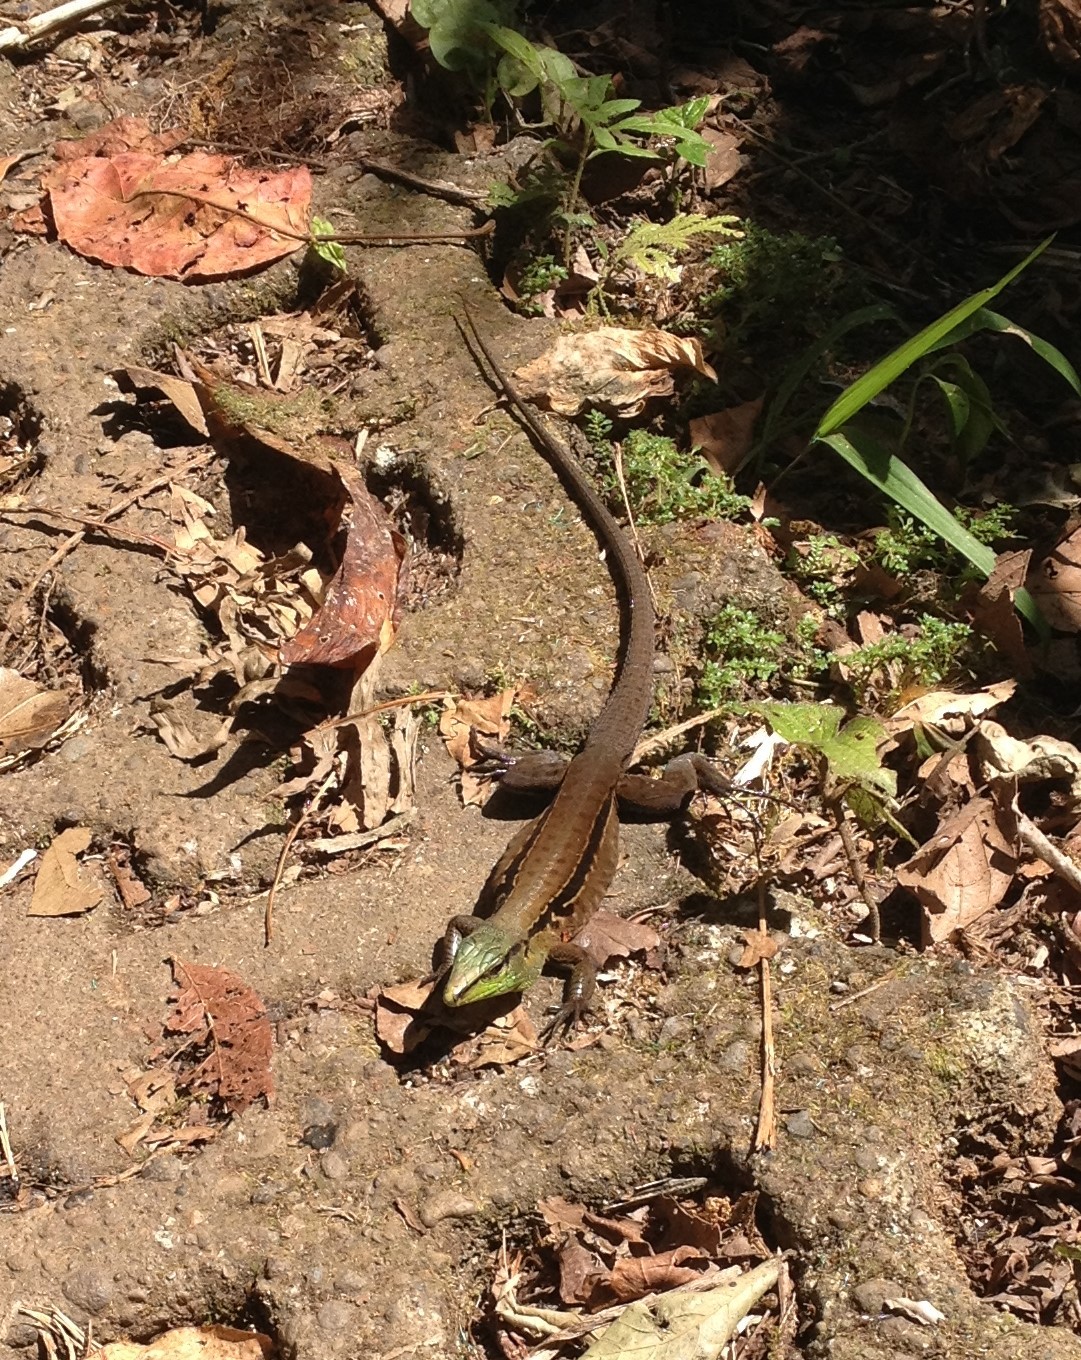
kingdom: Animalia
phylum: Chordata
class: Squamata
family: Teiidae
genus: Holcosus
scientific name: Holcosus undulatus
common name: Rainbow ameiva
